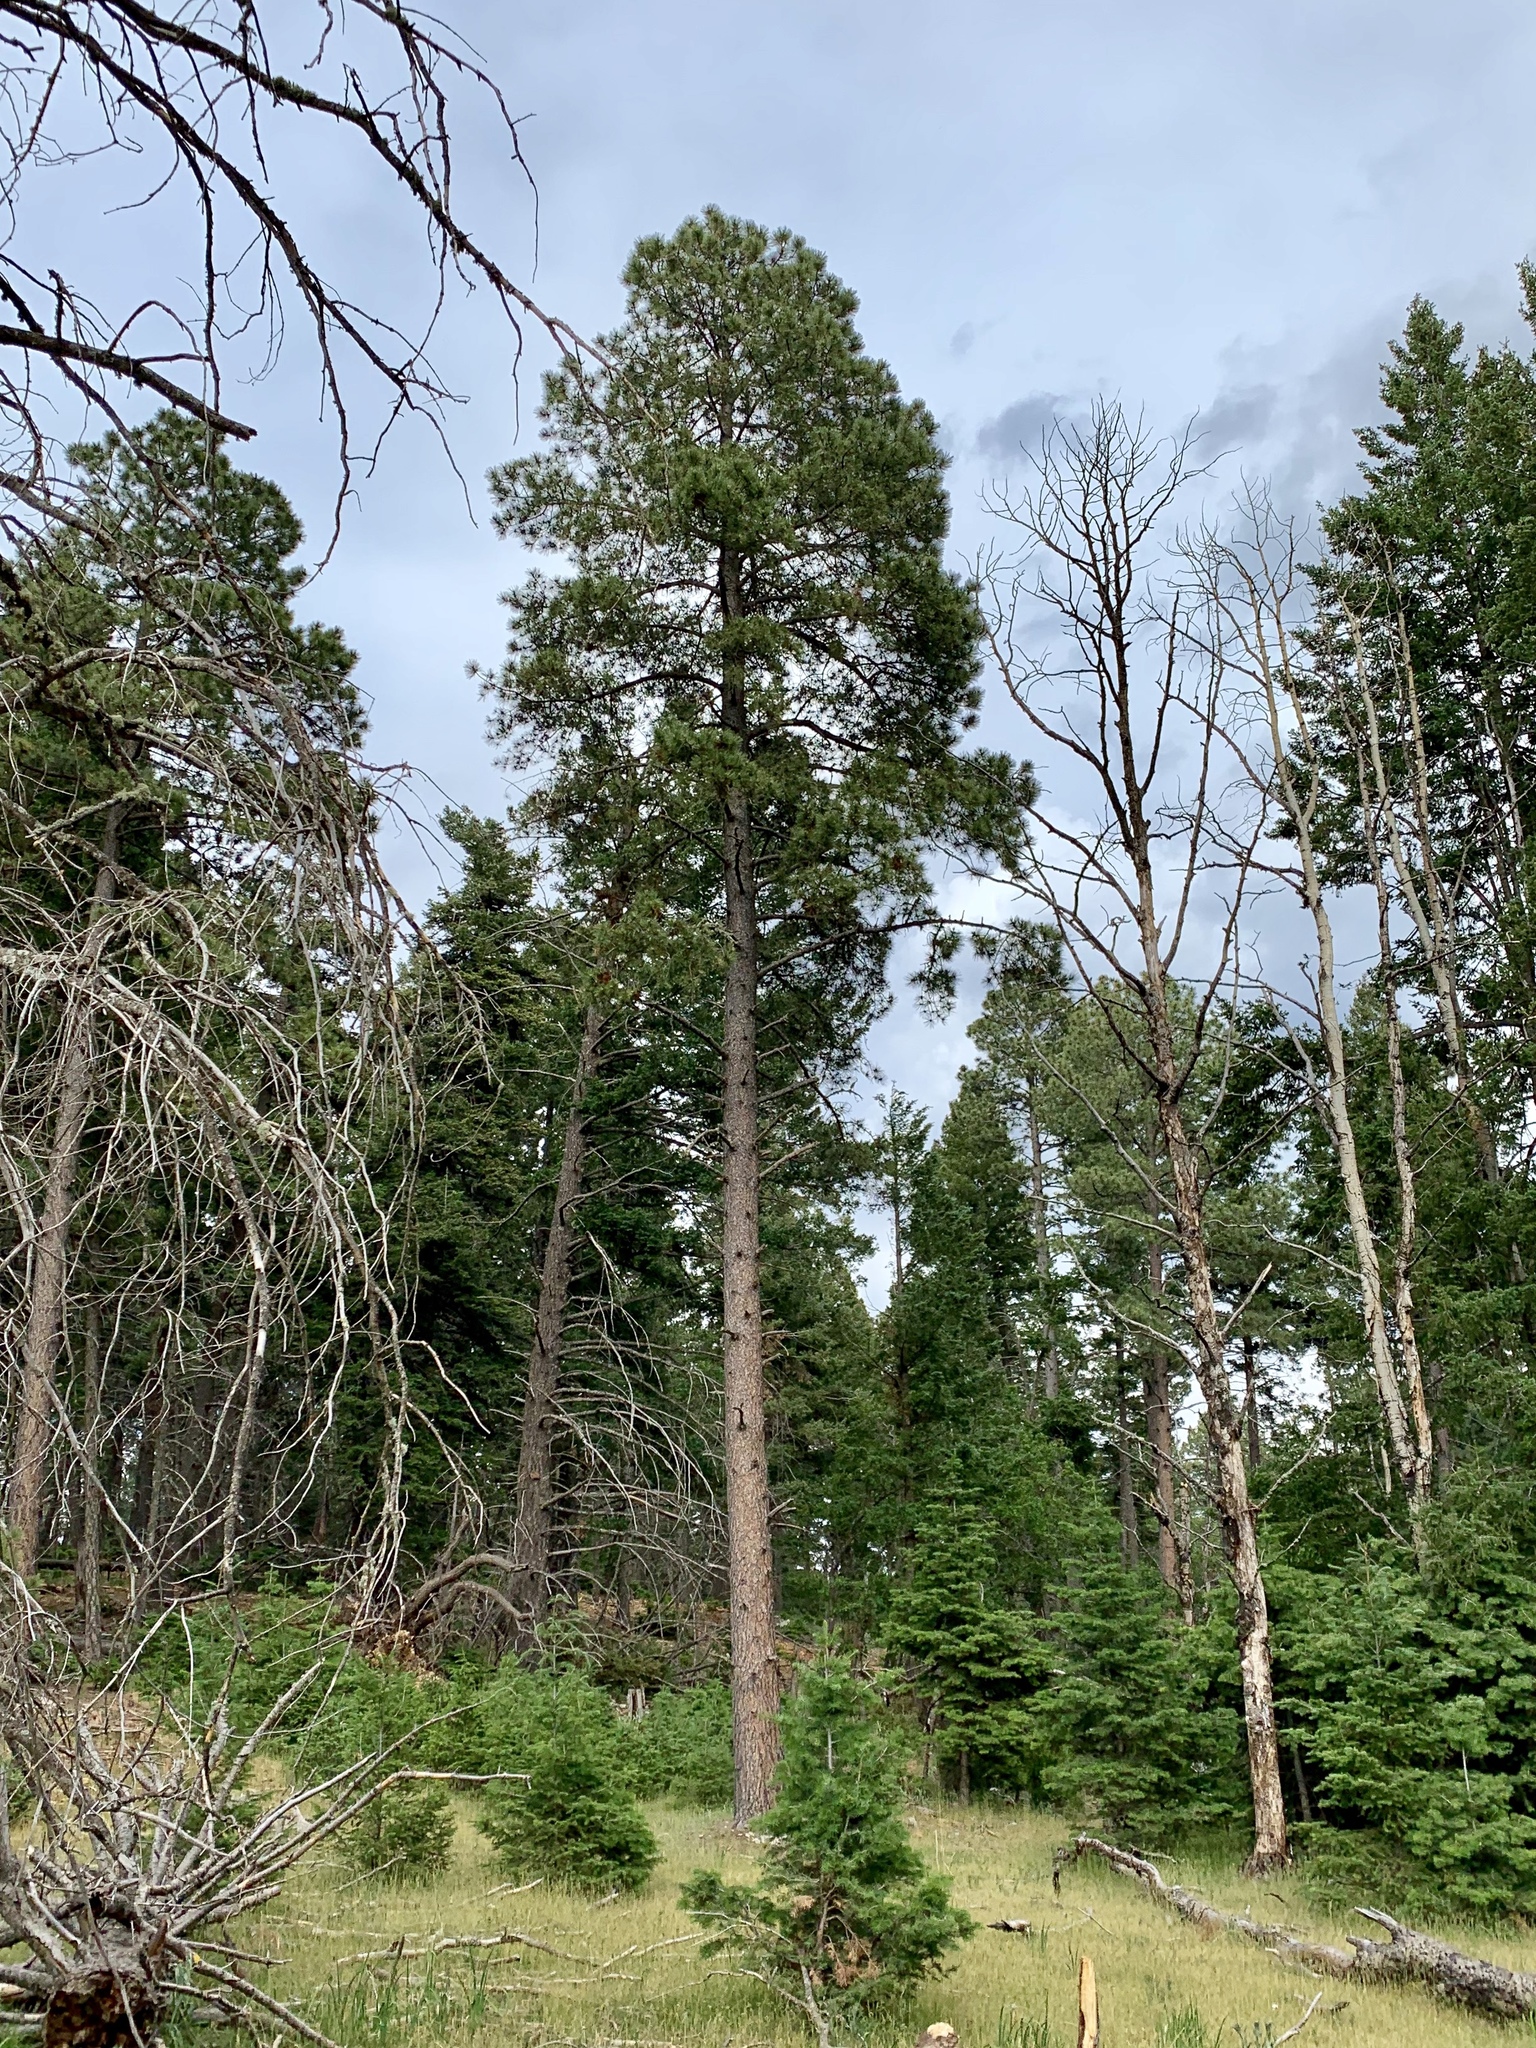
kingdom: Plantae
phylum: Tracheophyta
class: Pinopsida
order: Pinales
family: Pinaceae
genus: Pinus
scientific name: Pinus ponderosa
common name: Western yellow-pine
